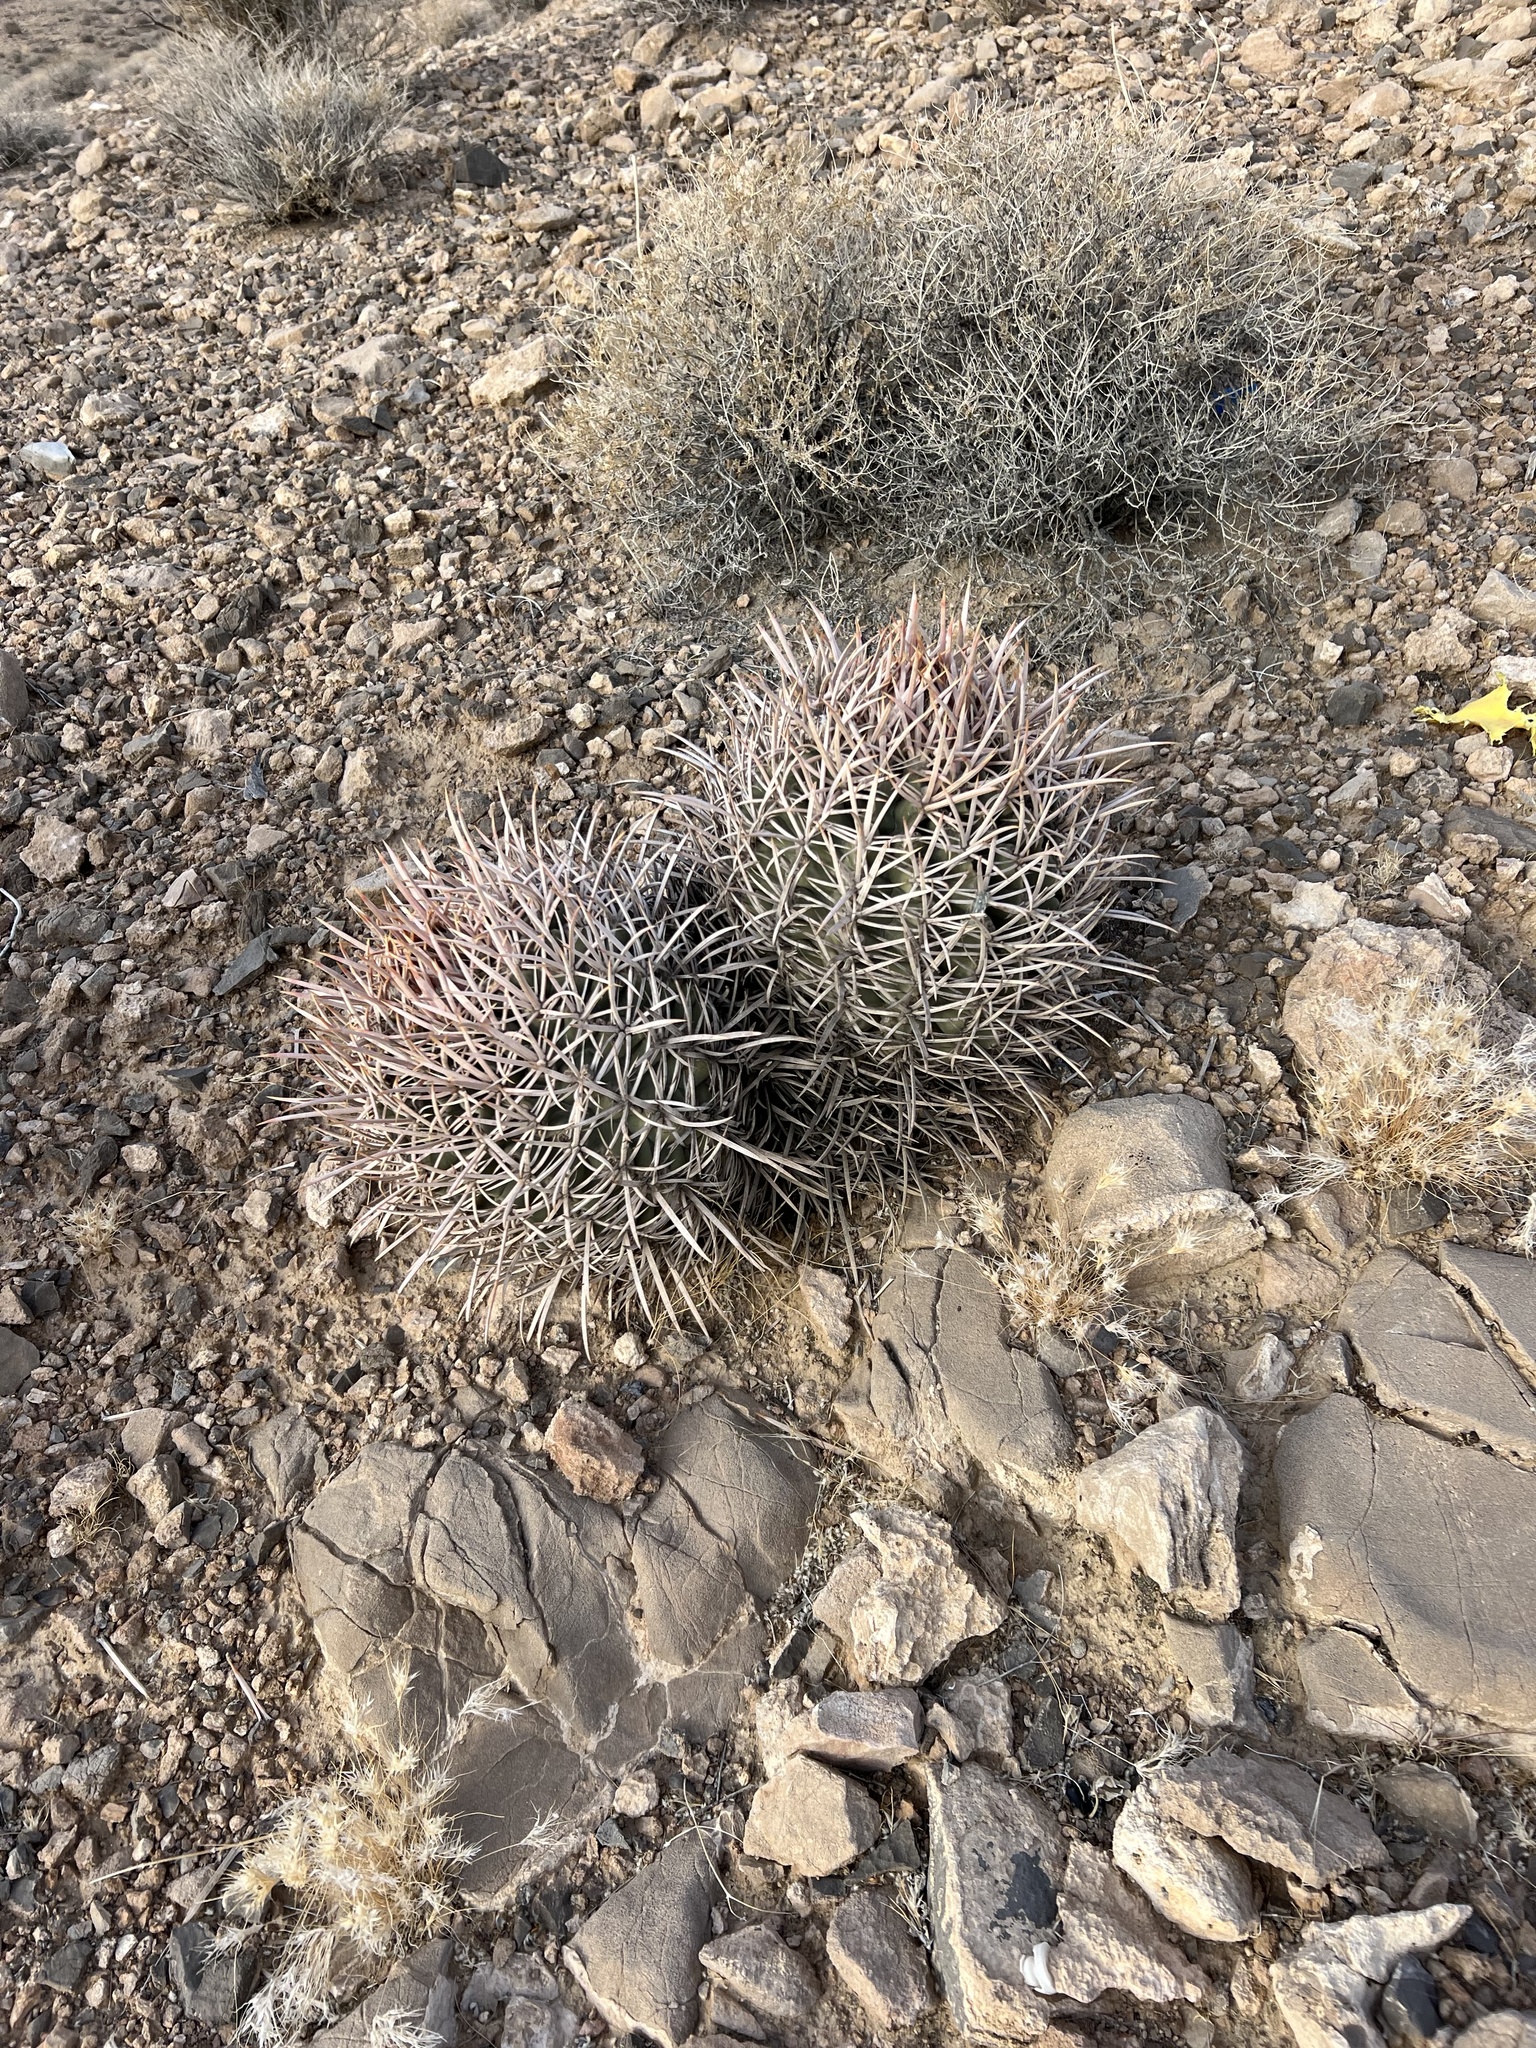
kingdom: Plantae
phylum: Tracheophyta
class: Magnoliopsida
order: Caryophyllales
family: Cactaceae
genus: Echinocactus
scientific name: Echinocactus polycephalus
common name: Cottontop cactus
